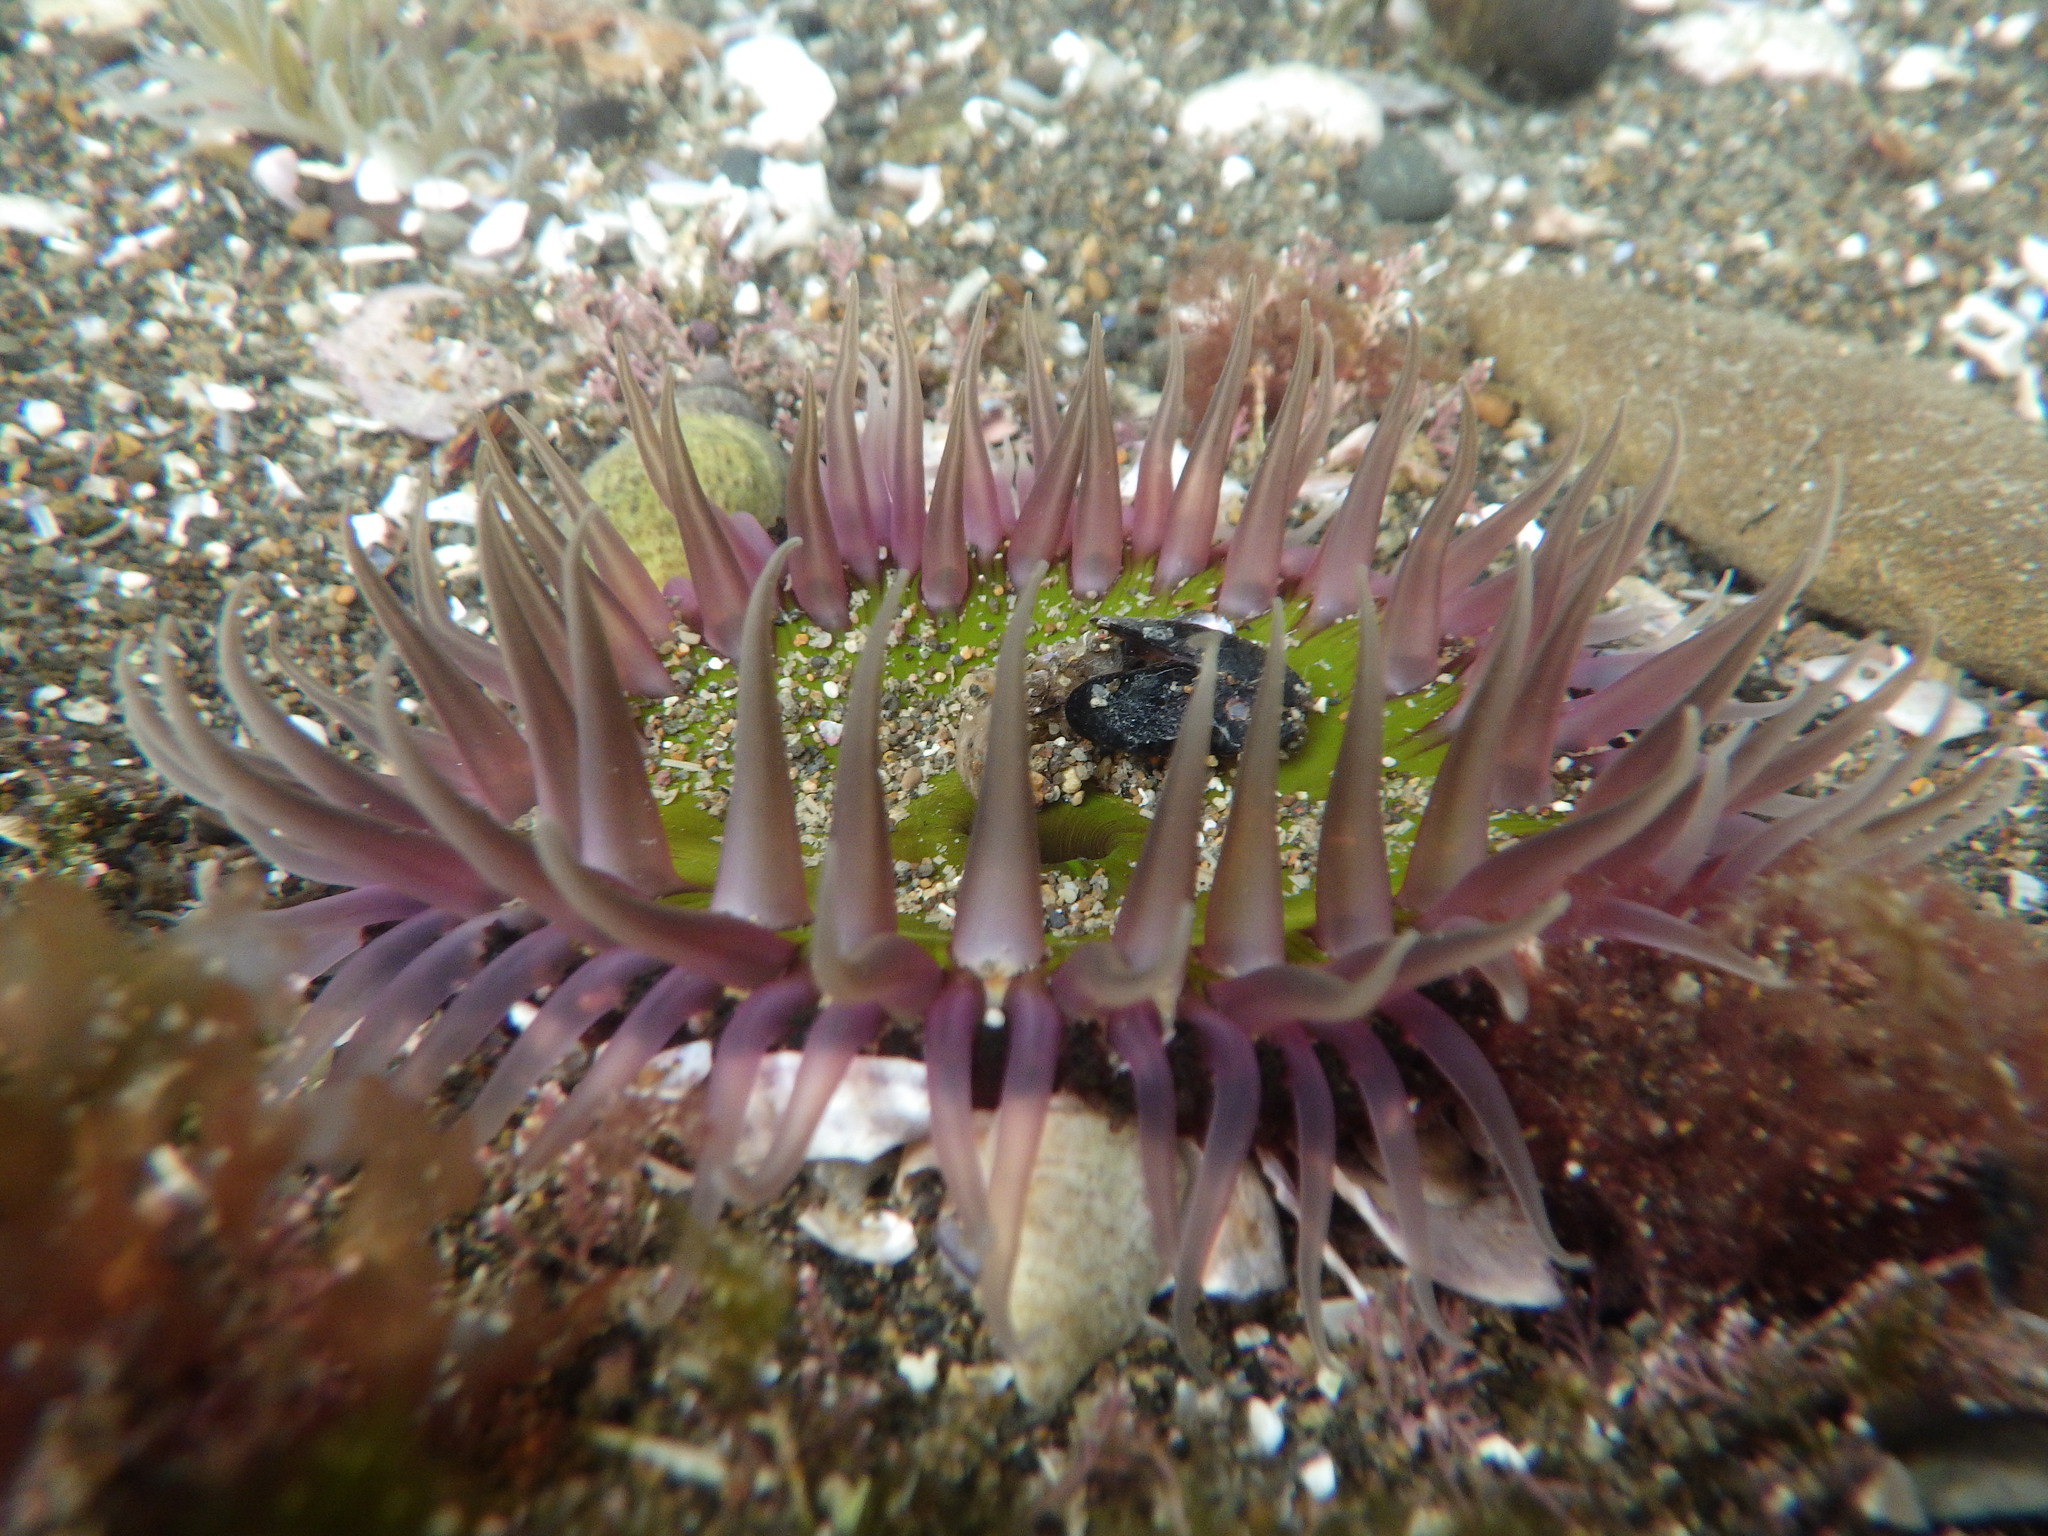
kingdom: Animalia
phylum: Cnidaria
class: Anthozoa
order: Actiniaria
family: Actiniidae
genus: Oulactis
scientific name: Oulactis magna
